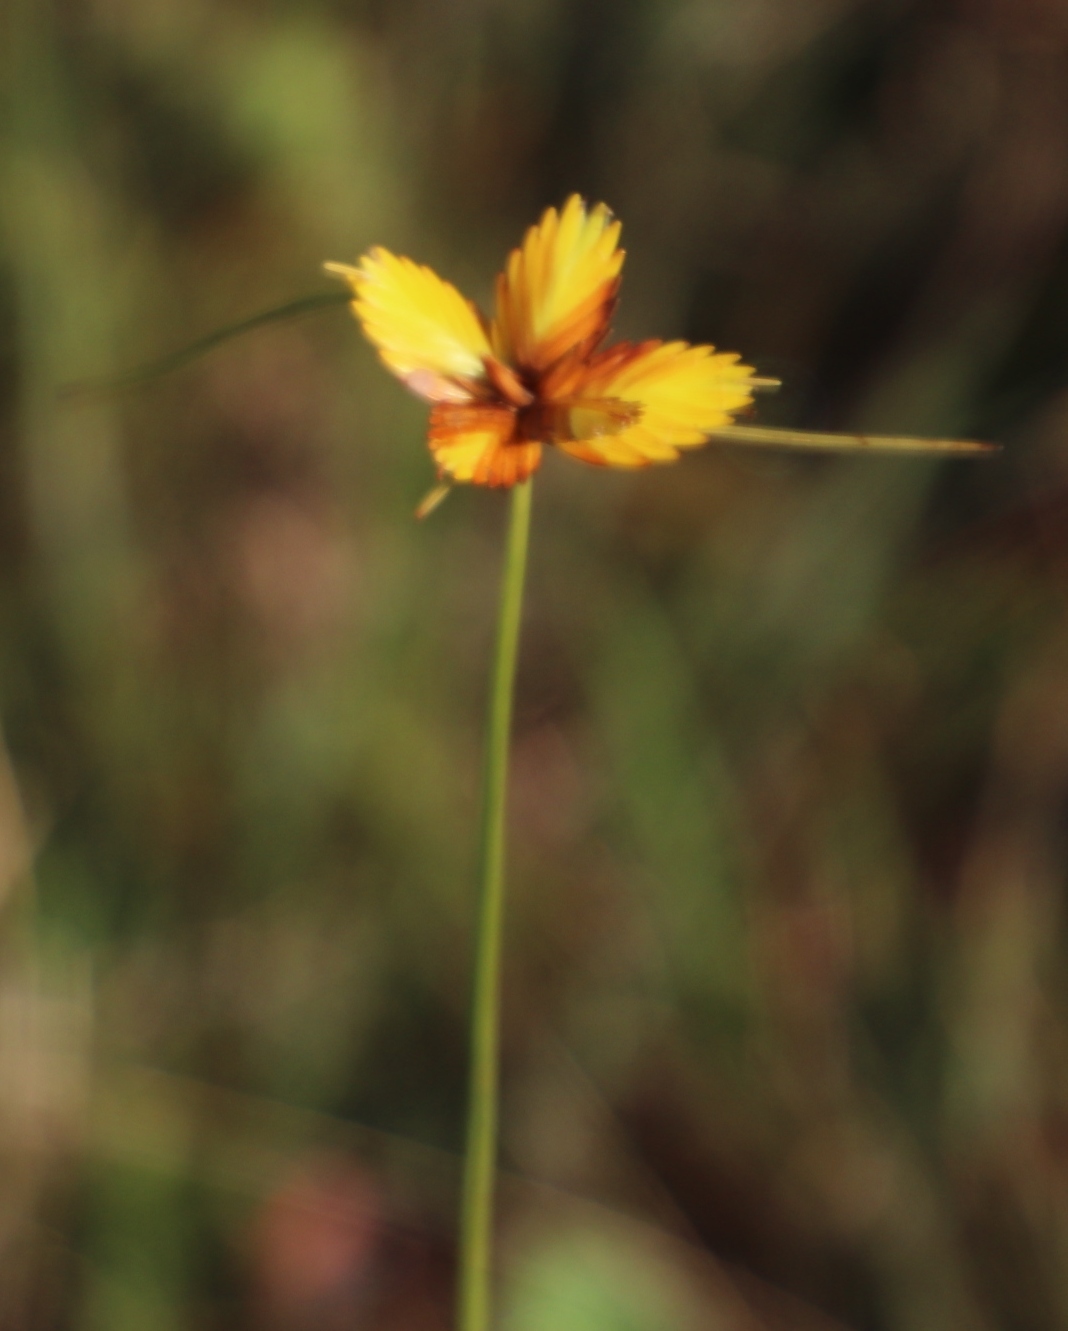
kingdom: Plantae
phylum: Tracheophyta
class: Liliopsida
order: Poales
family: Cyperaceae
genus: Cyperus
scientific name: Cyperus sphaerocephalus
